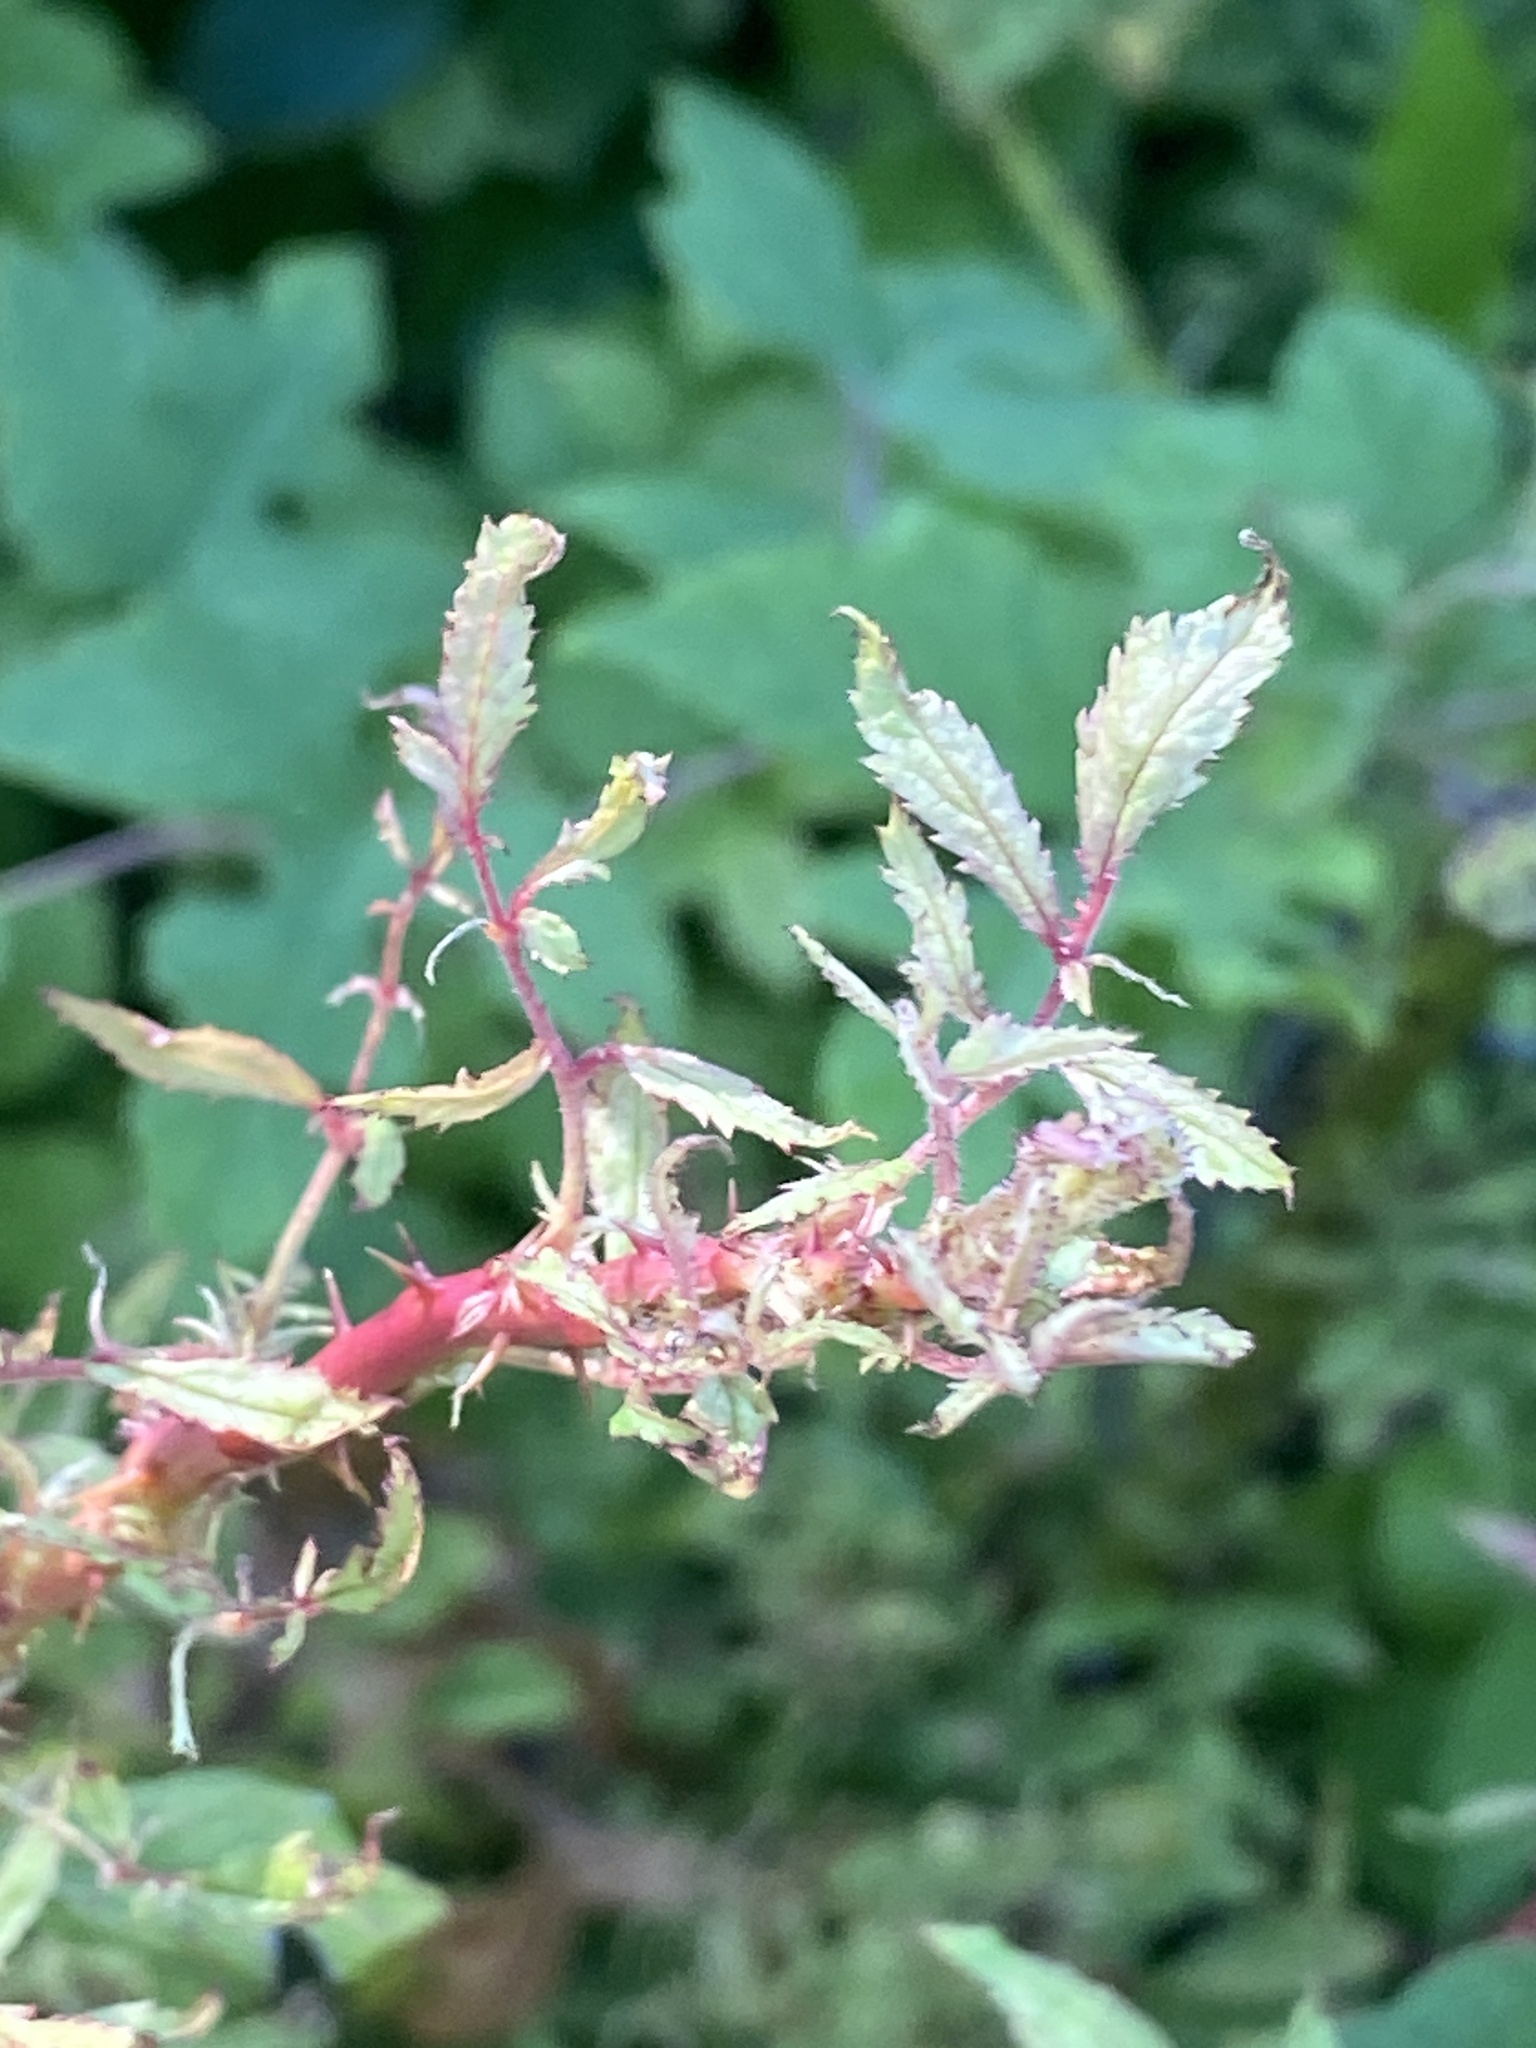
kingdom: Viruses
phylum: Negarnaviricota
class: Ellioviricetes
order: Bunyavirales
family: Fimoviridae
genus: Emaravirus
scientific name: Emaravirus rosae
